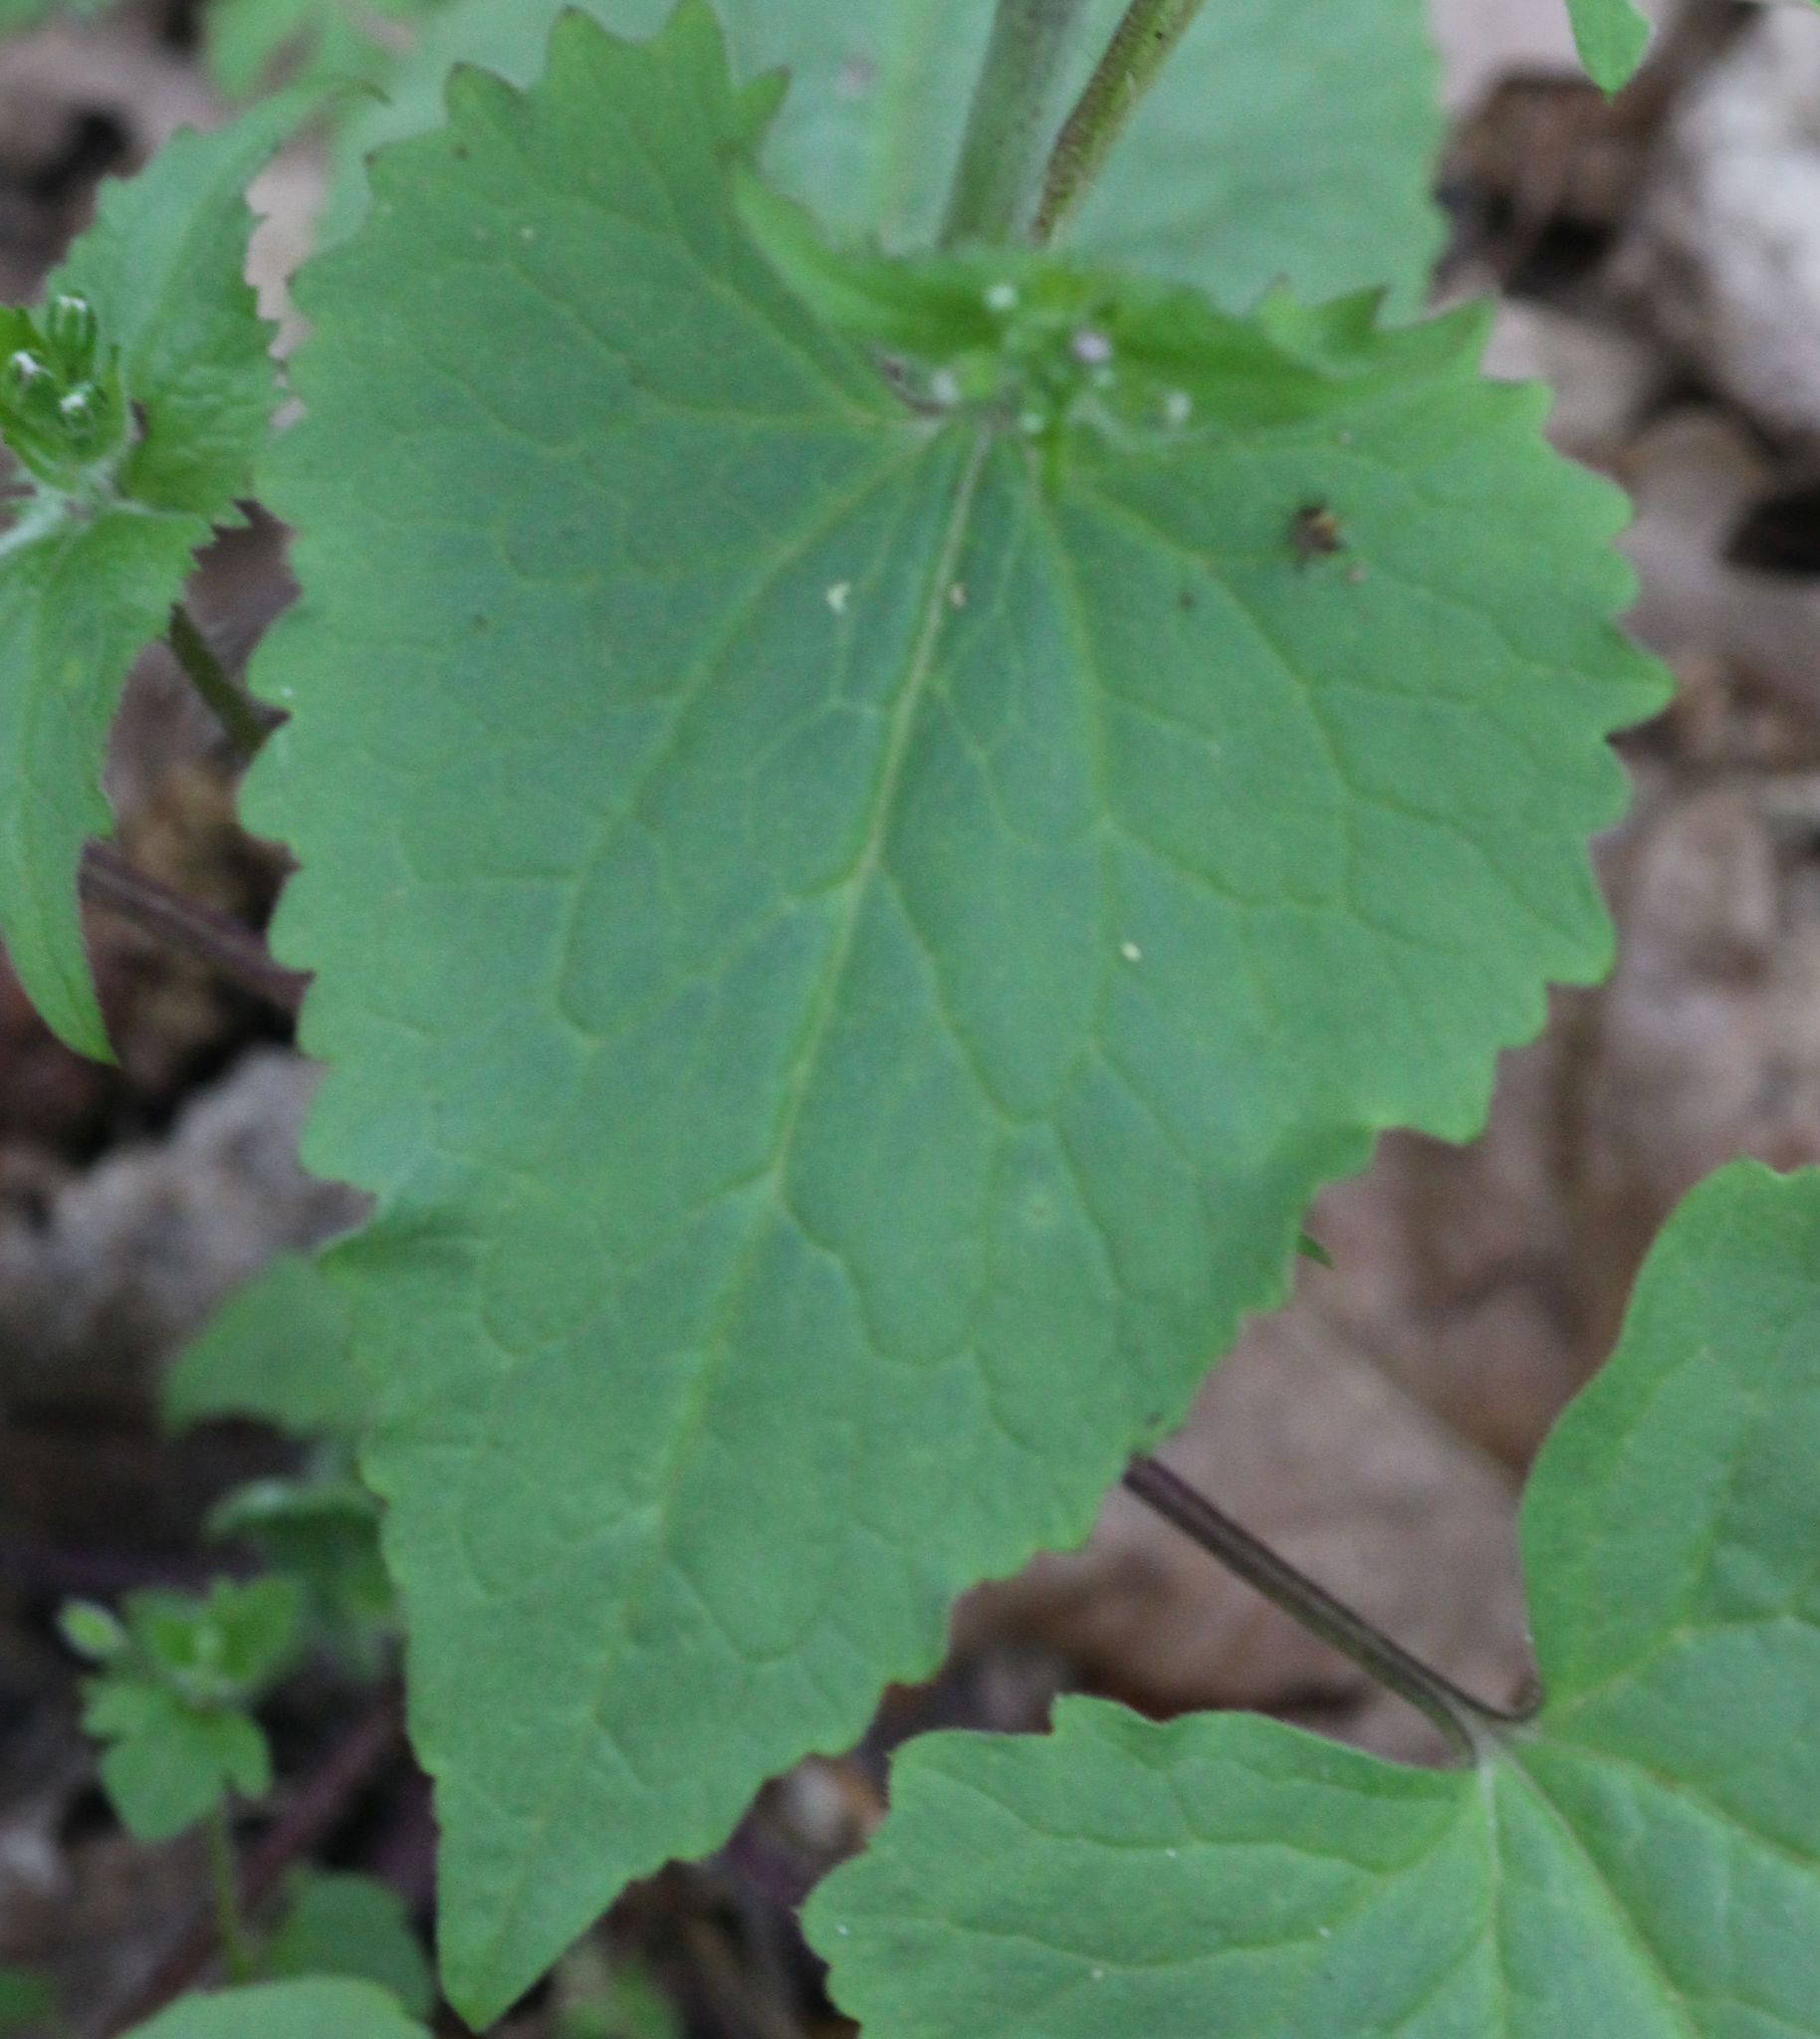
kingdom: Plantae
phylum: Tracheophyta
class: Magnoliopsida
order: Brassicales
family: Brassicaceae
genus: Lunaria
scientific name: Lunaria annua
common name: Honesty
